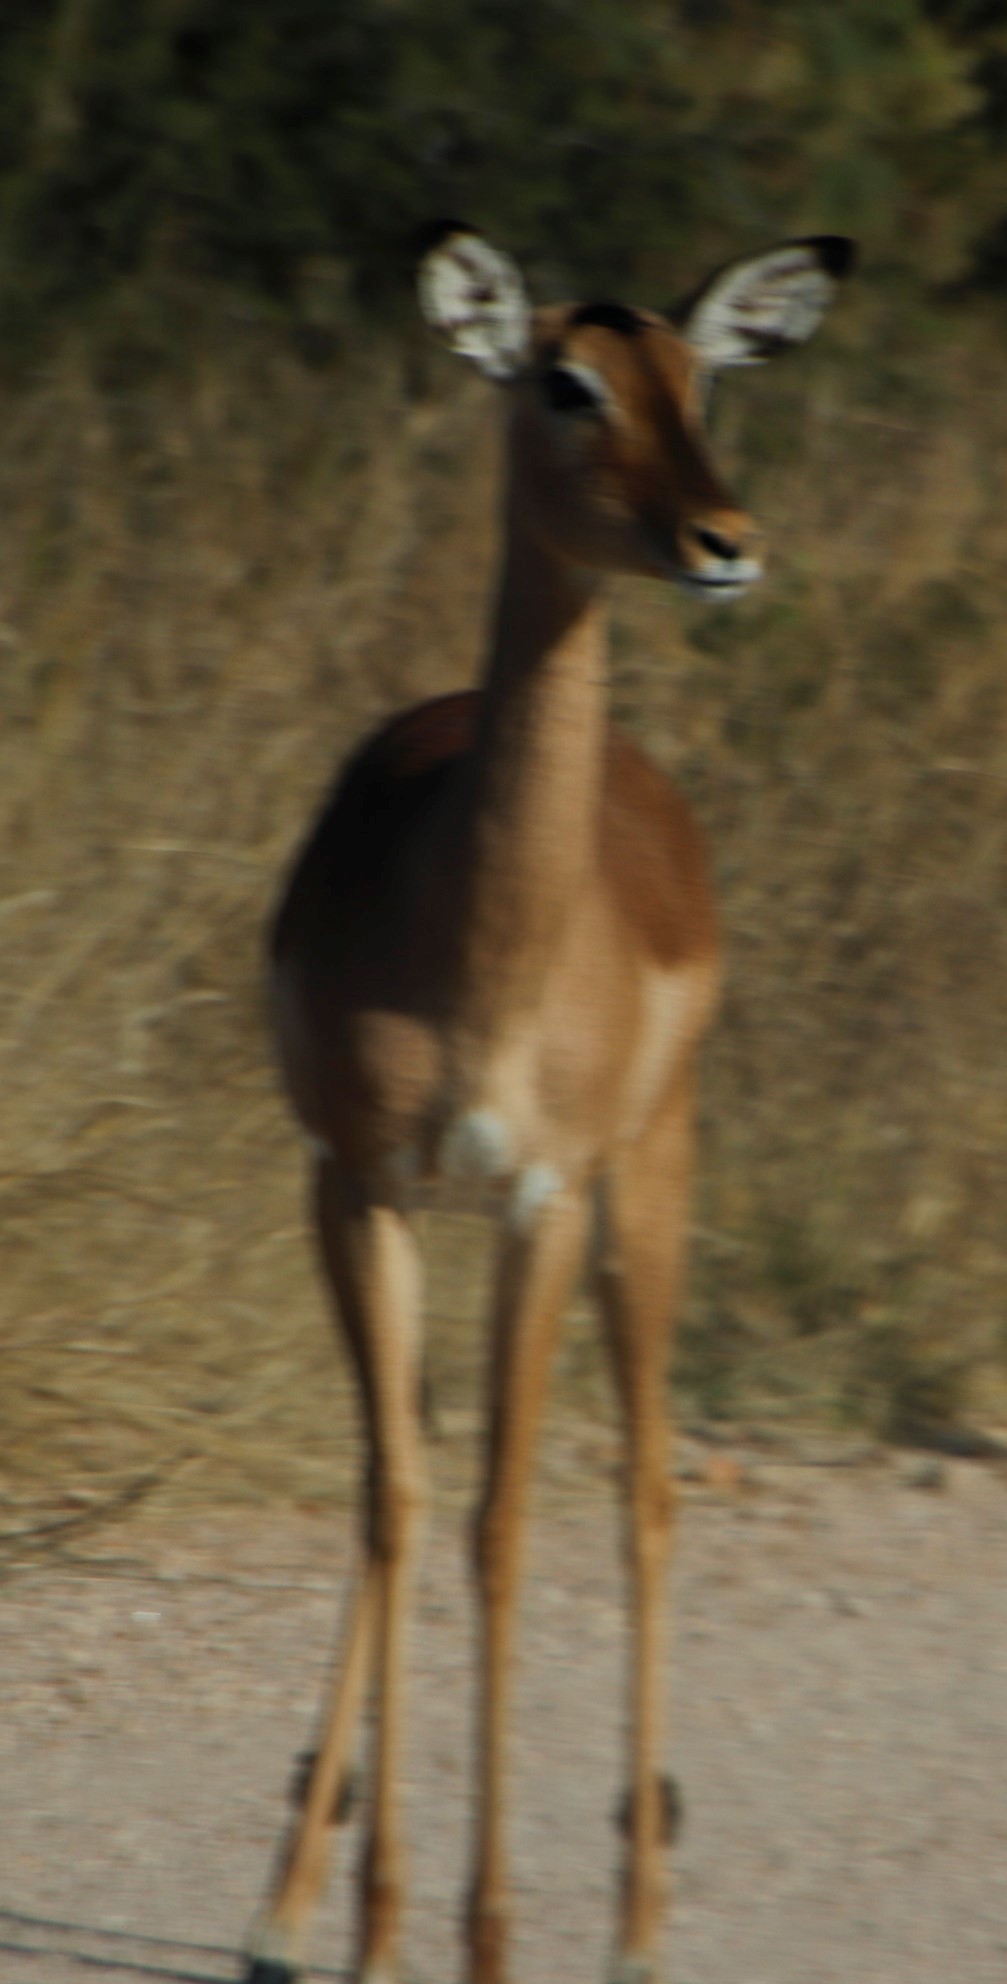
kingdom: Animalia
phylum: Chordata
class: Mammalia
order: Artiodactyla
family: Bovidae
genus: Aepyceros
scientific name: Aepyceros melampus
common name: Impala
